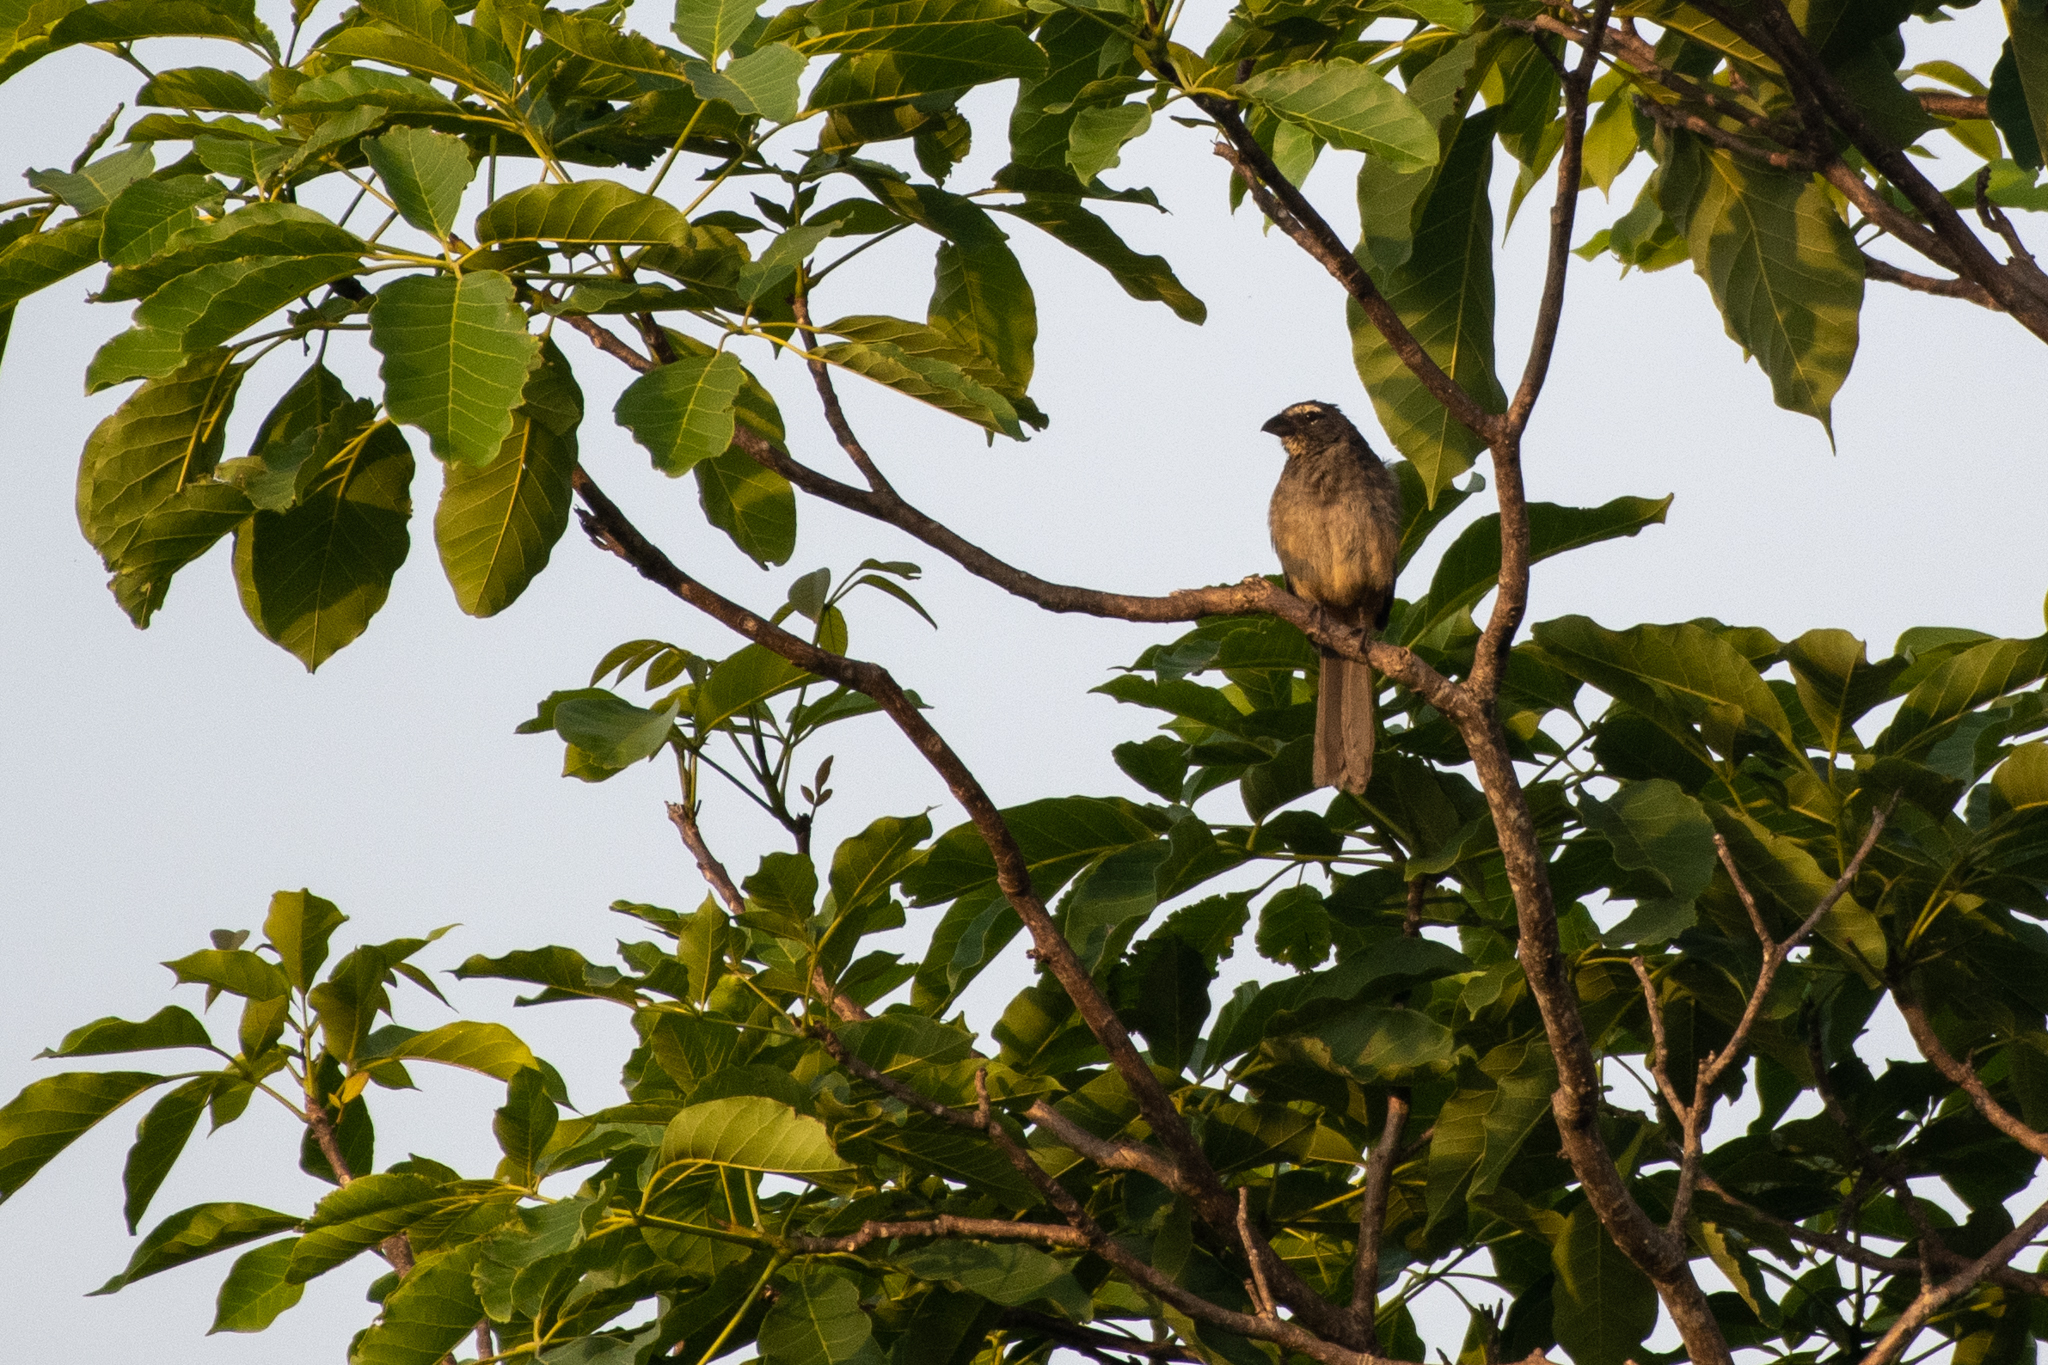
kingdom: Animalia
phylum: Chordata
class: Aves
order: Passeriformes
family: Thraupidae
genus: Saltator
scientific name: Saltator grandis
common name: Cinnamon-bellied saltator
